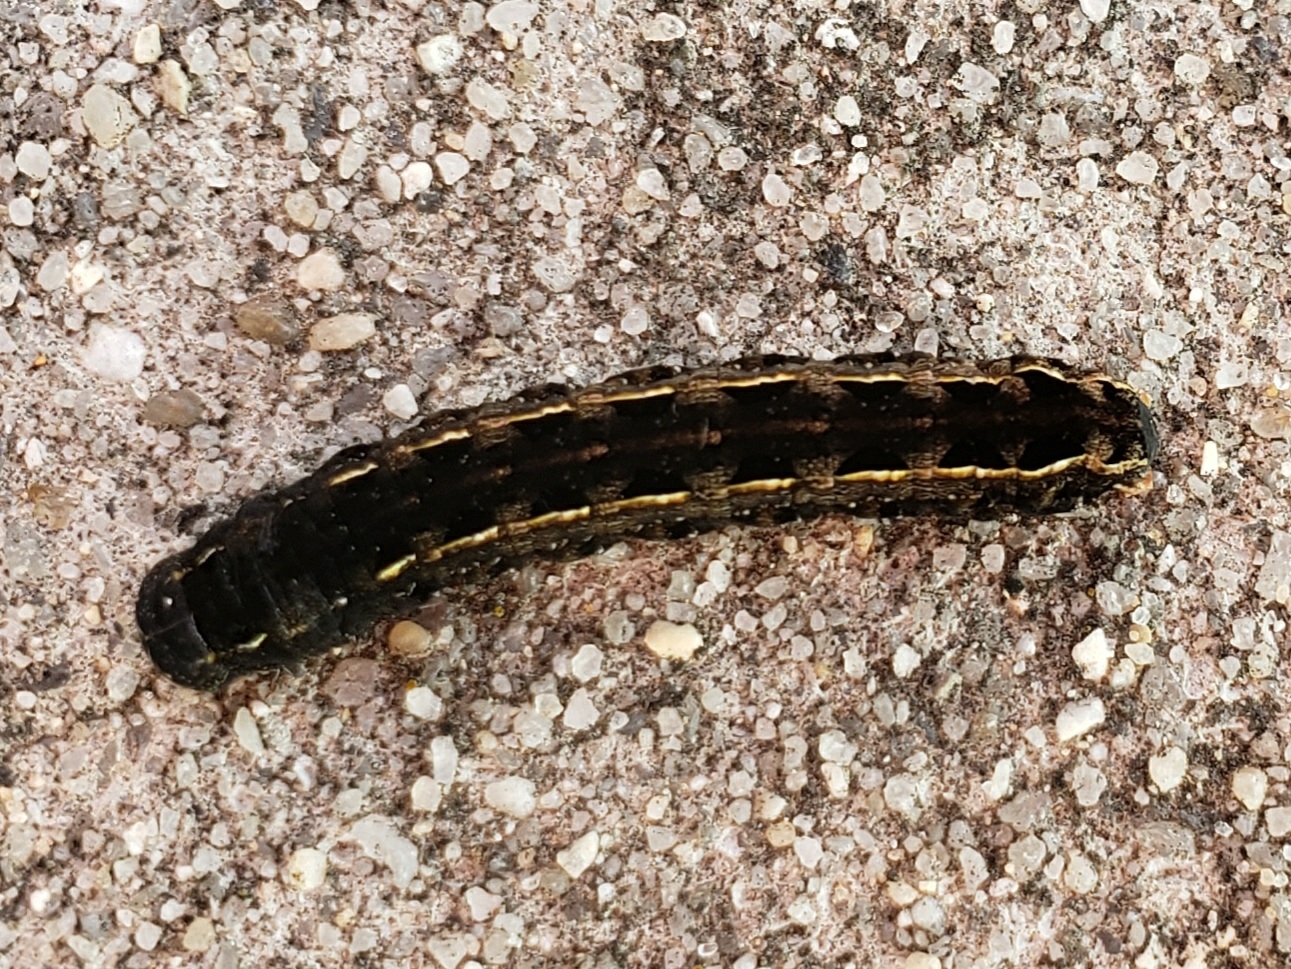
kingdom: Animalia
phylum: Arthropoda
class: Insecta
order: Lepidoptera
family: Noctuidae
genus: Spodoptera
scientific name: Spodoptera ornithogalli
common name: Yellow-striped armyworm
